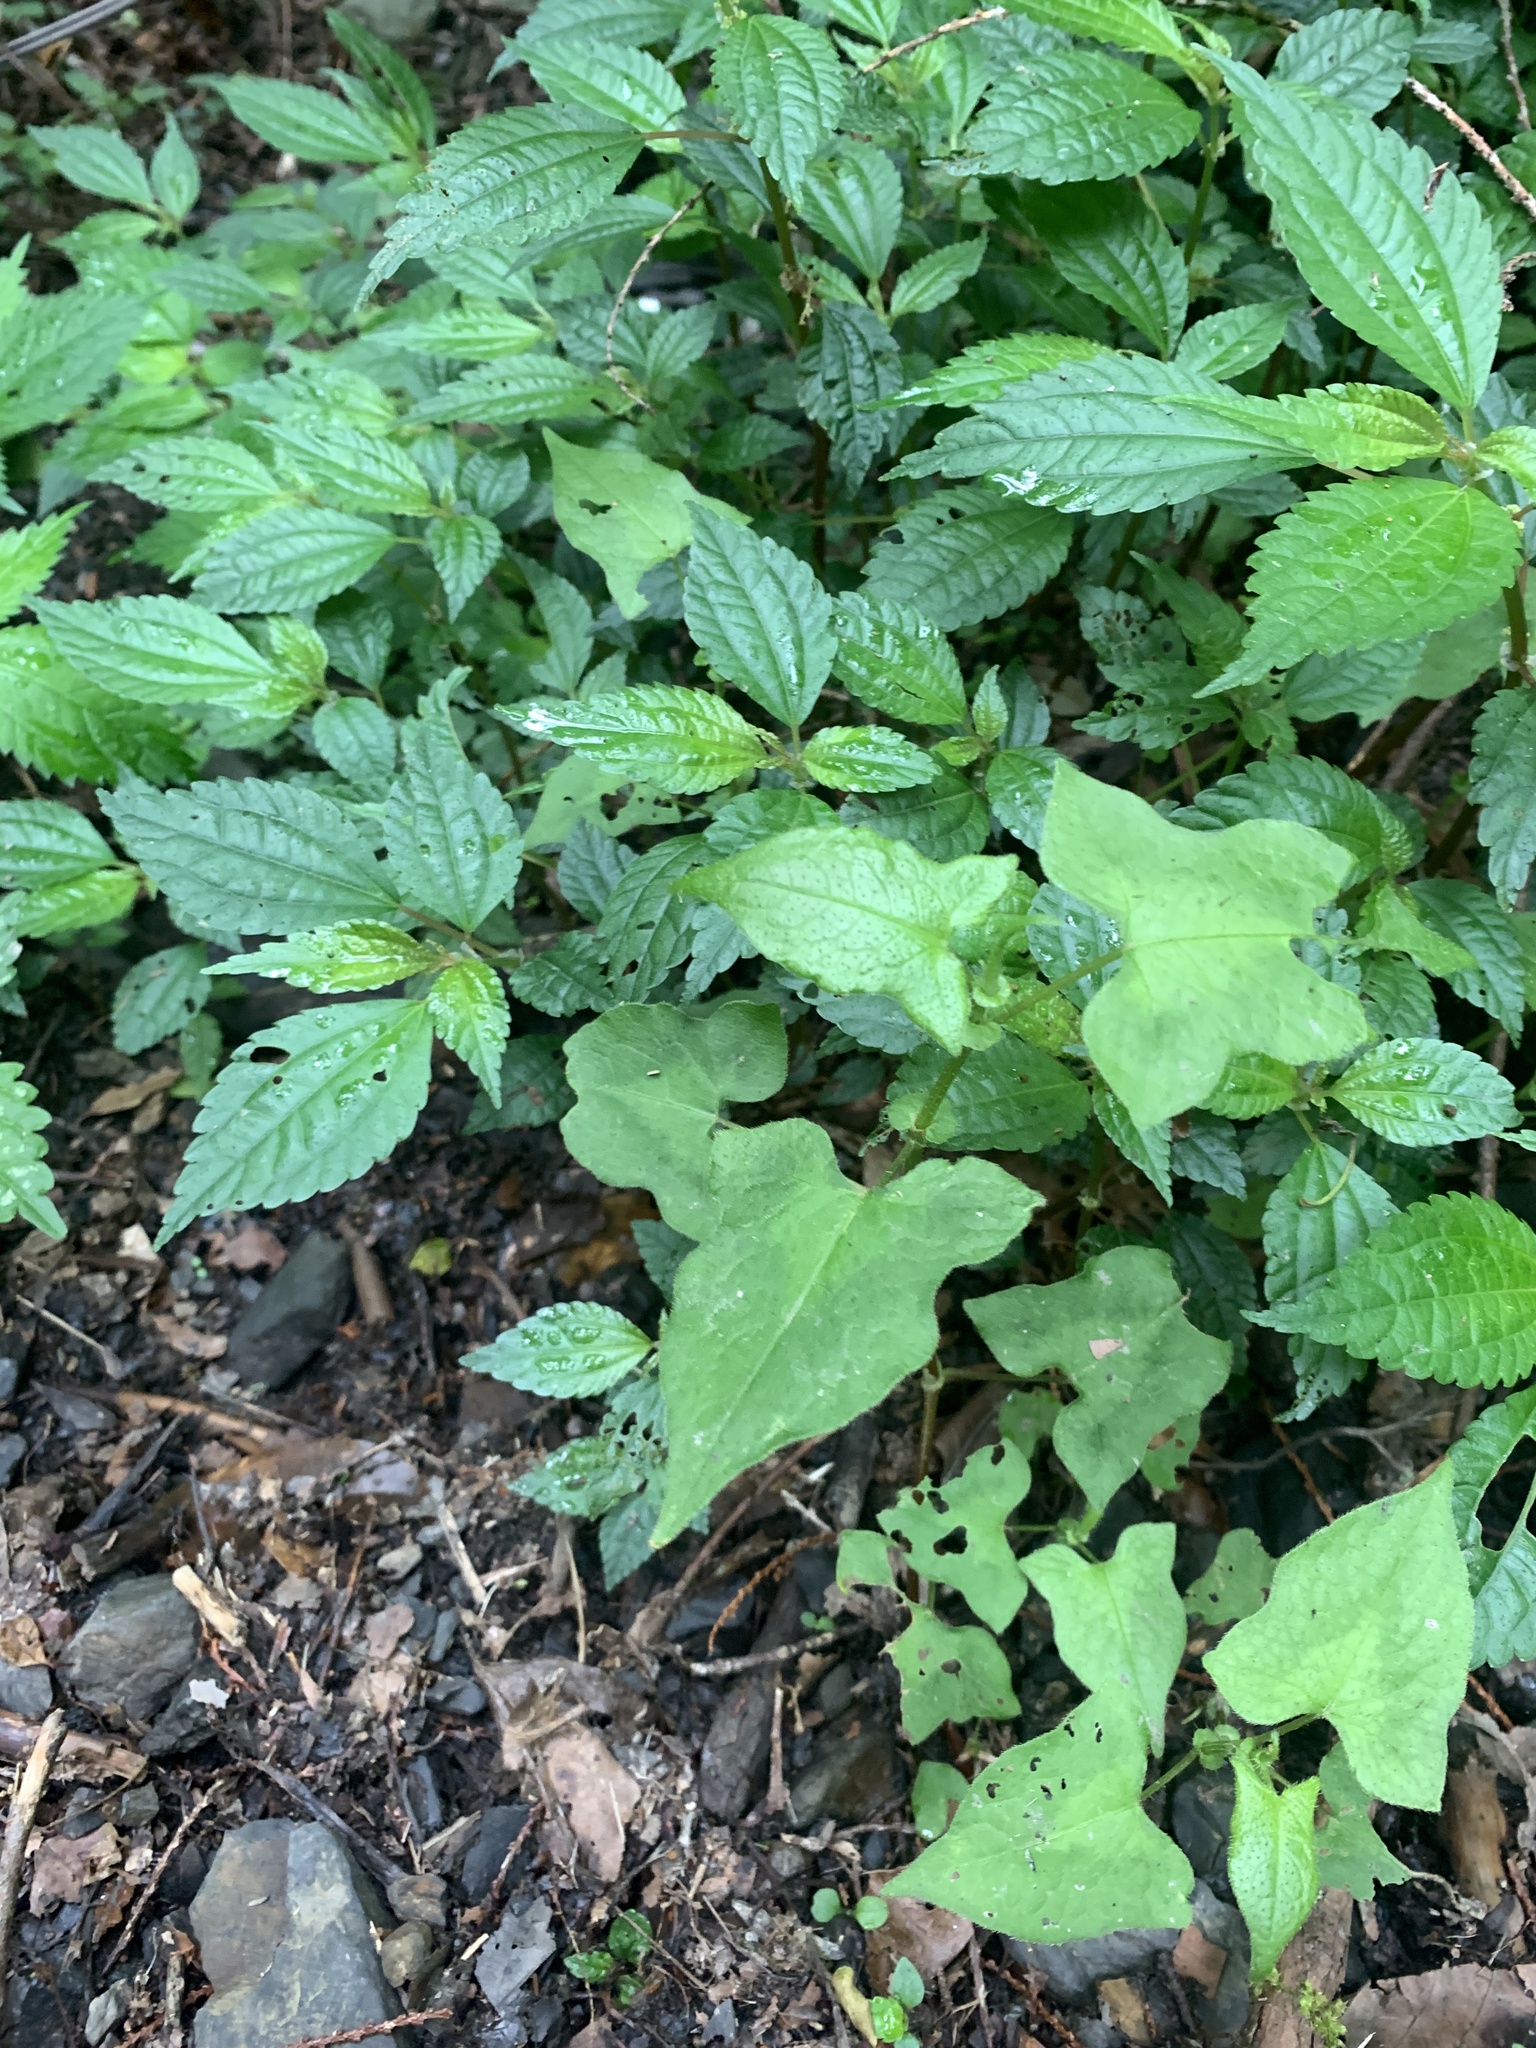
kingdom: Plantae
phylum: Tracheophyta
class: Magnoliopsida
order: Caryophyllales
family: Polygonaceae
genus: Persicaria
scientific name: Persicaria biconvexa
